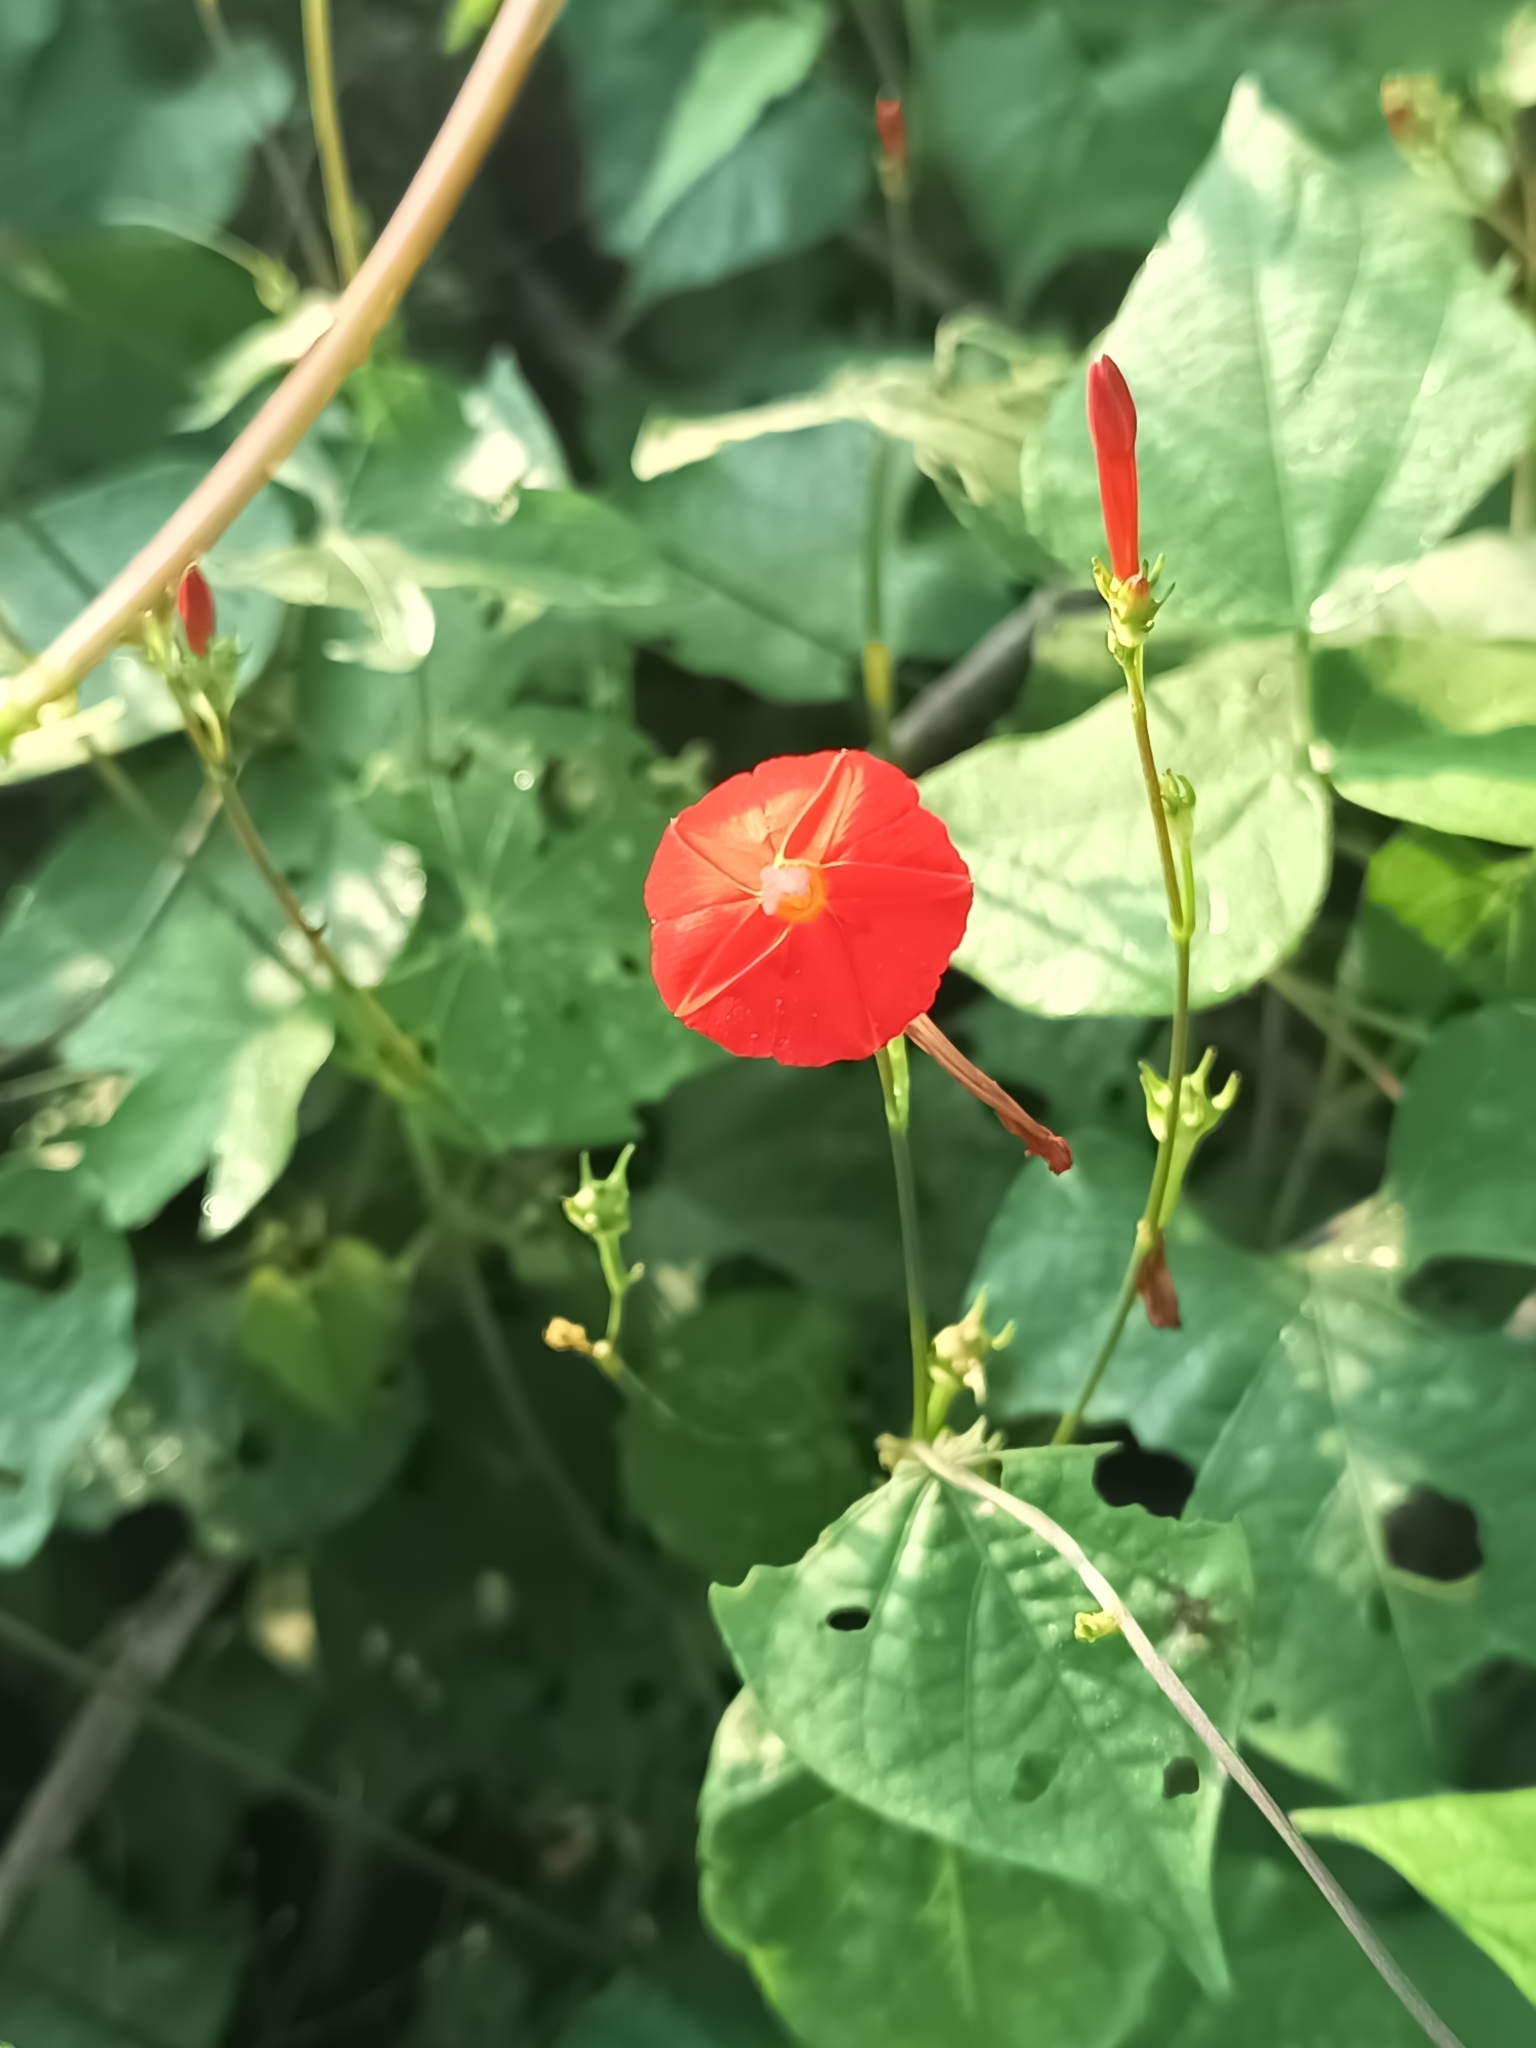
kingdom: Plantae
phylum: Tracheophyta
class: Magnoliopsida
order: Solanales
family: Convolvulaceae
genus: Ipomoea
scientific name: Ipomoea hederifolia
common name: Ivy-leaf morning-glory
